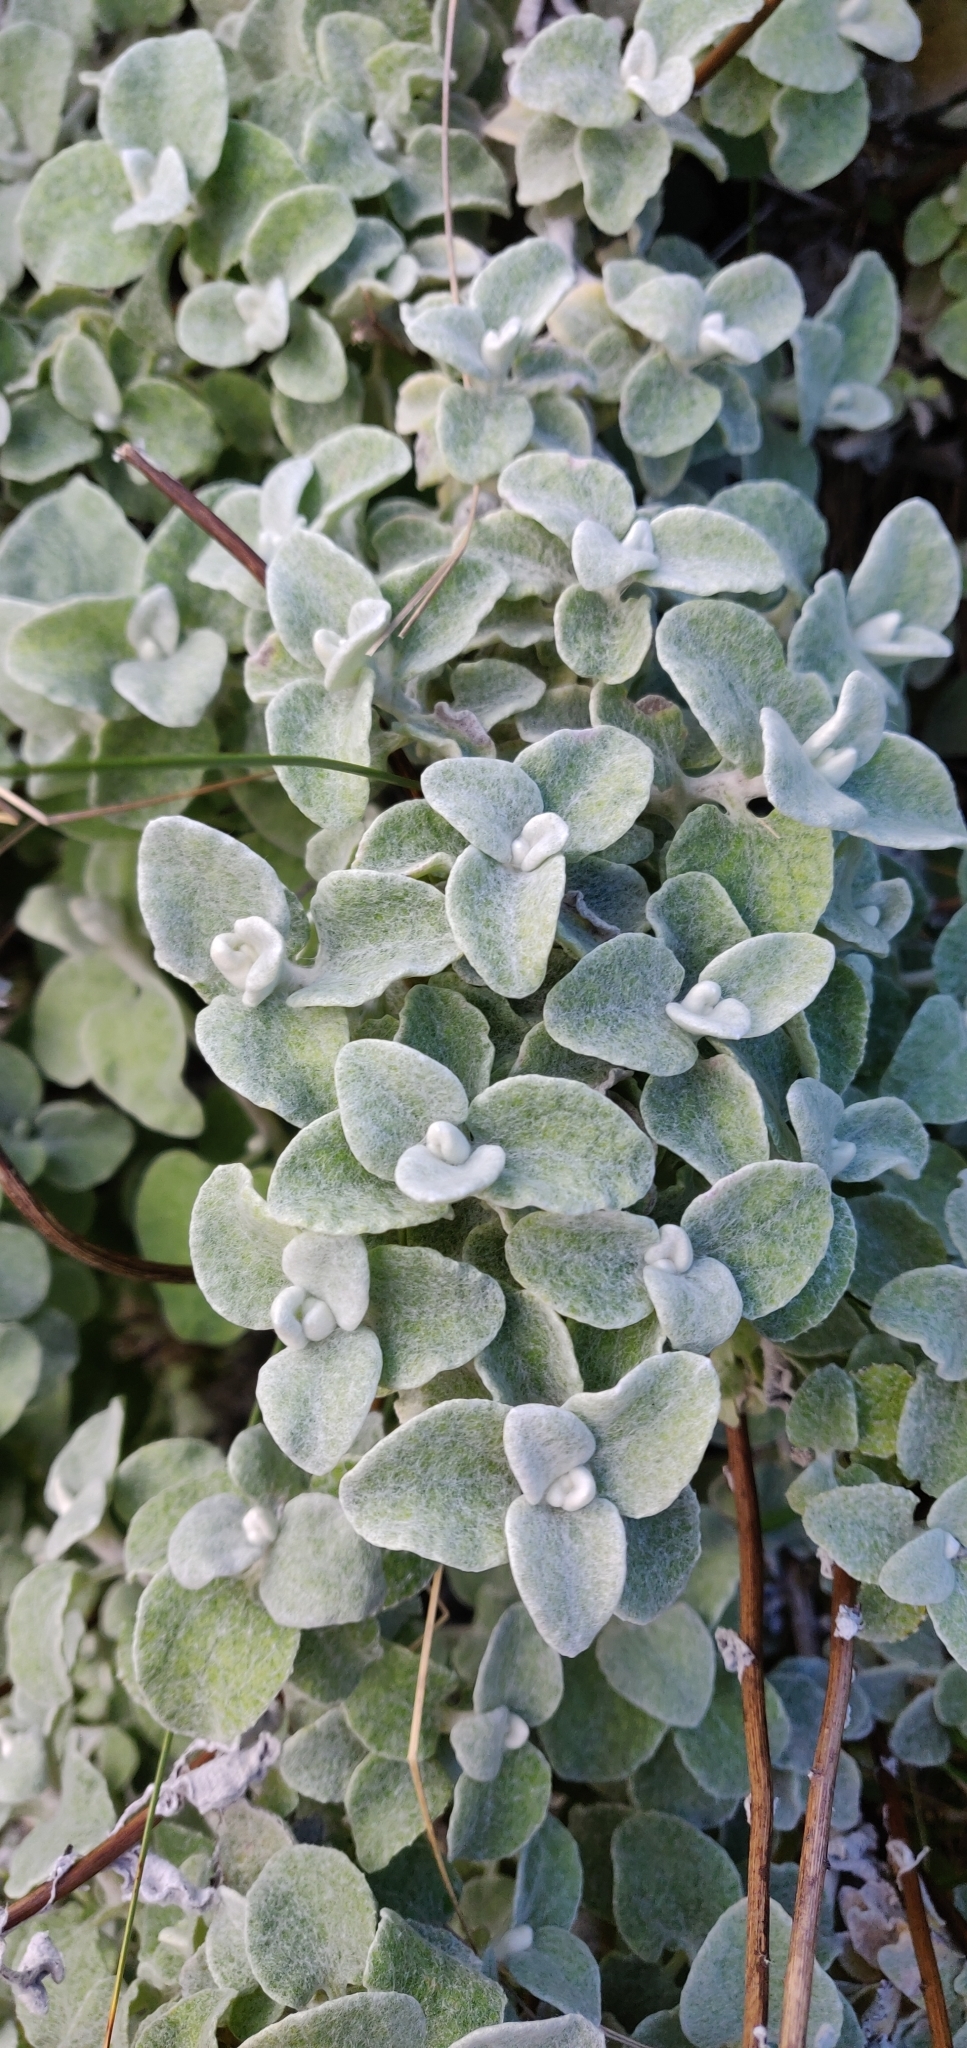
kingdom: Plantae
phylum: Tracheophyta
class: Magnoliopsida
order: Asterales
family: Asteraceae
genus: Helichrysum
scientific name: Helichrysum petiolare
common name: Licorice-plant
